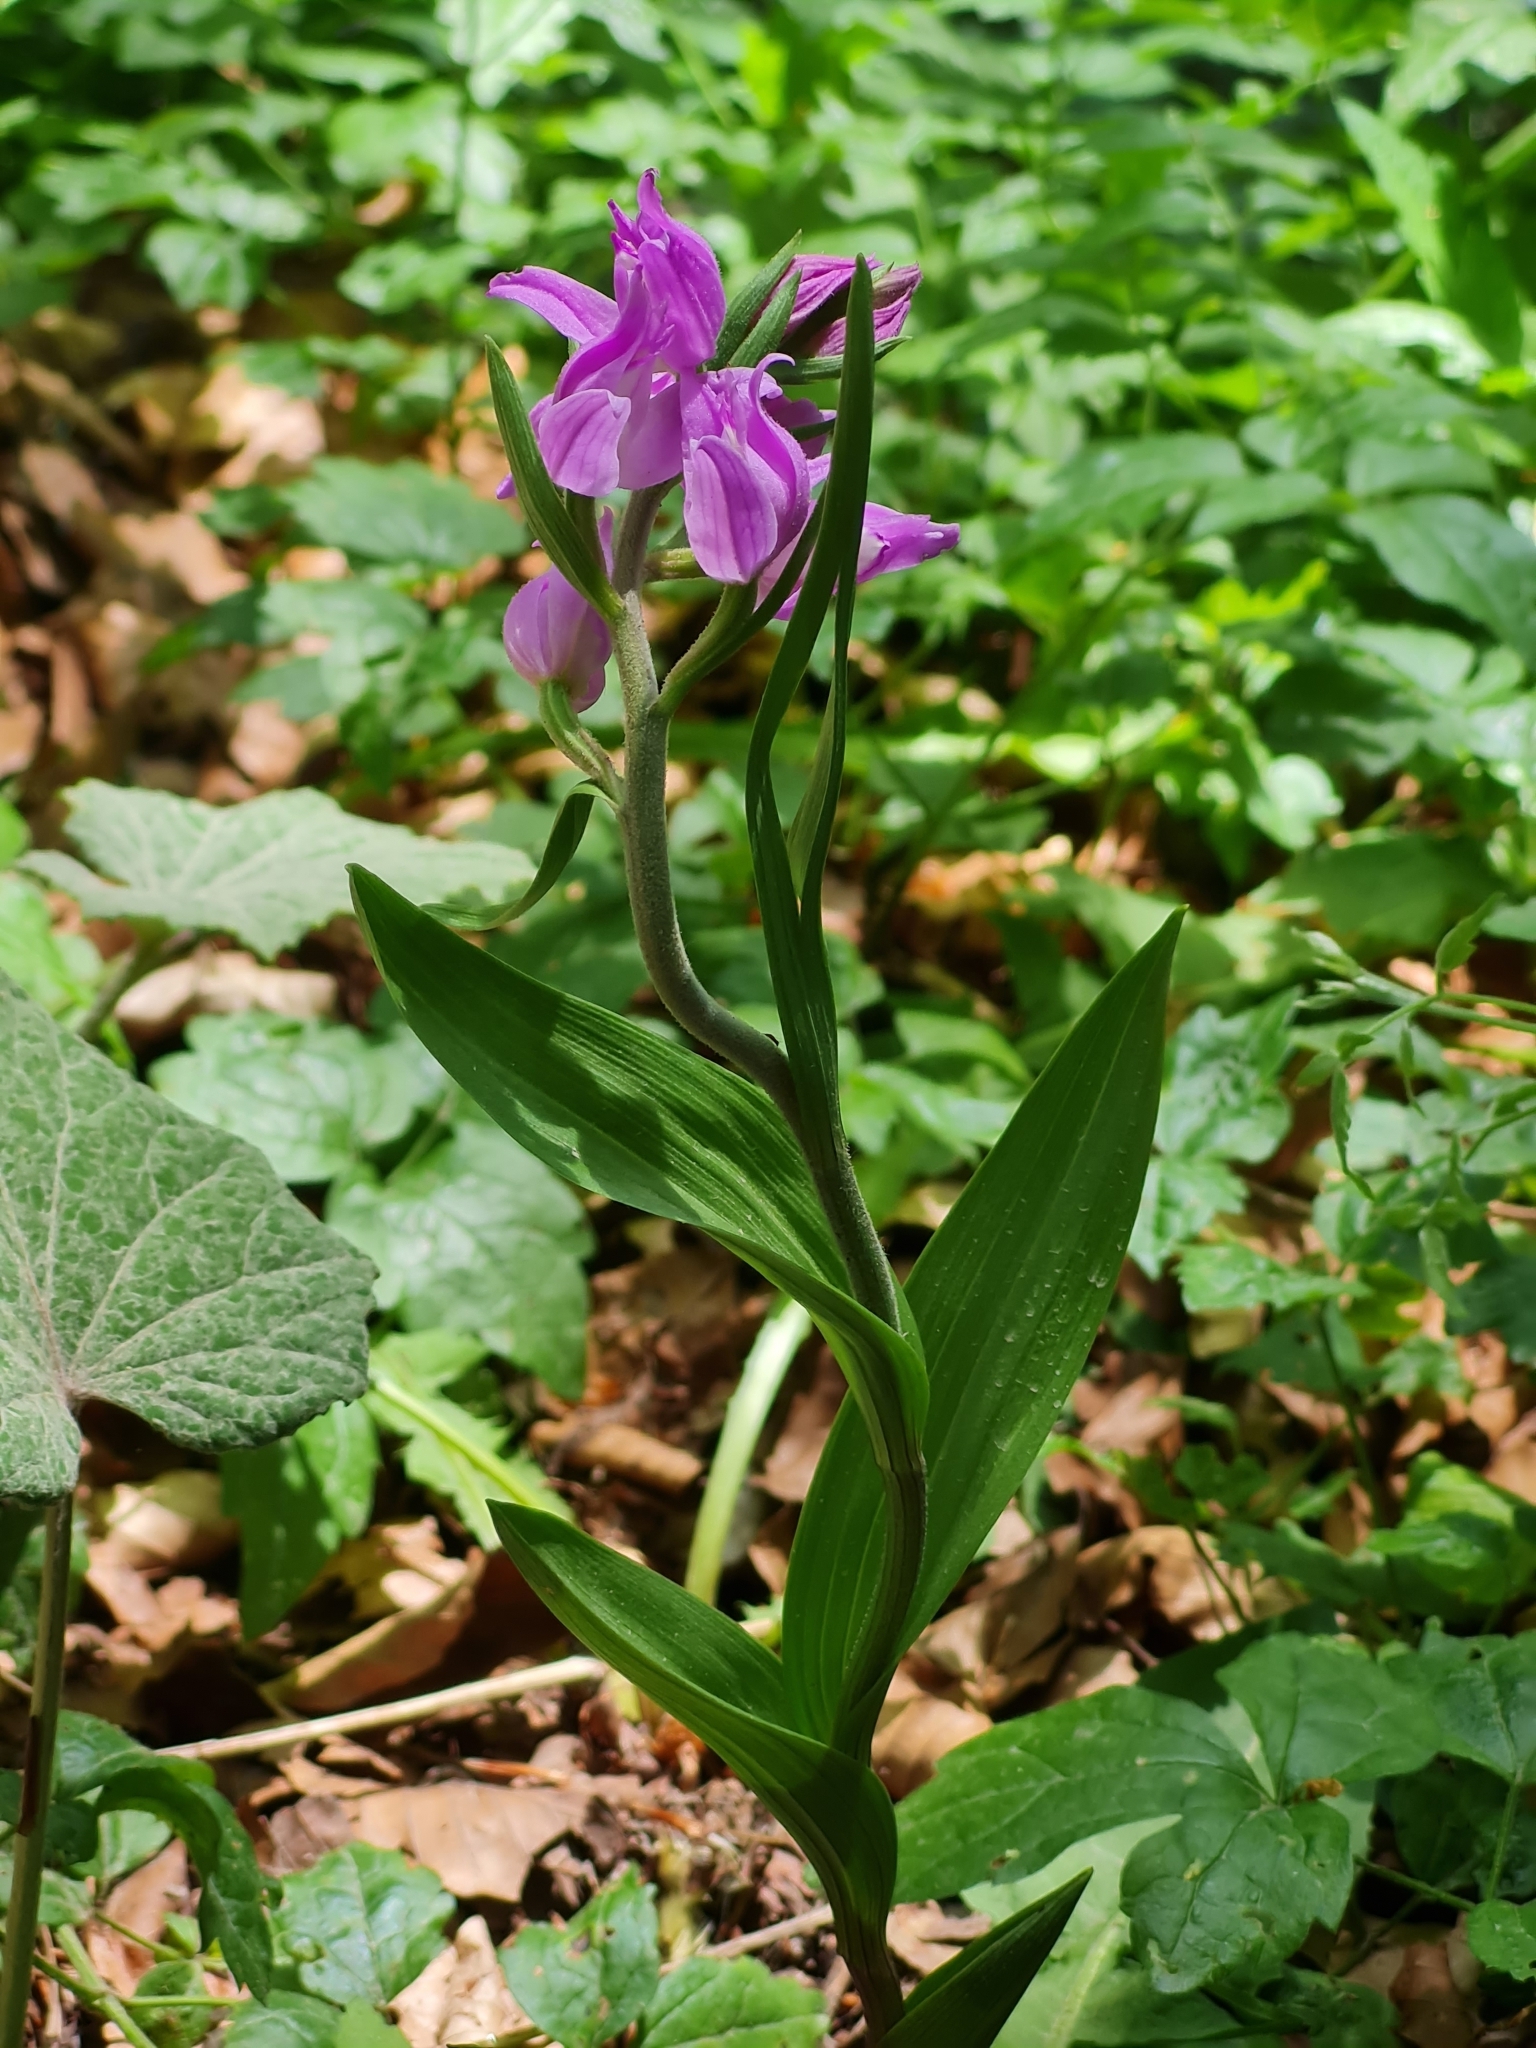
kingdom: Plantae
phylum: Tracheophyta
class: Liliopsida
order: Asparagales
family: Orchidaceae
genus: Cephalanthera
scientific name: Cephalanthera rubra
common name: Red helleborine
